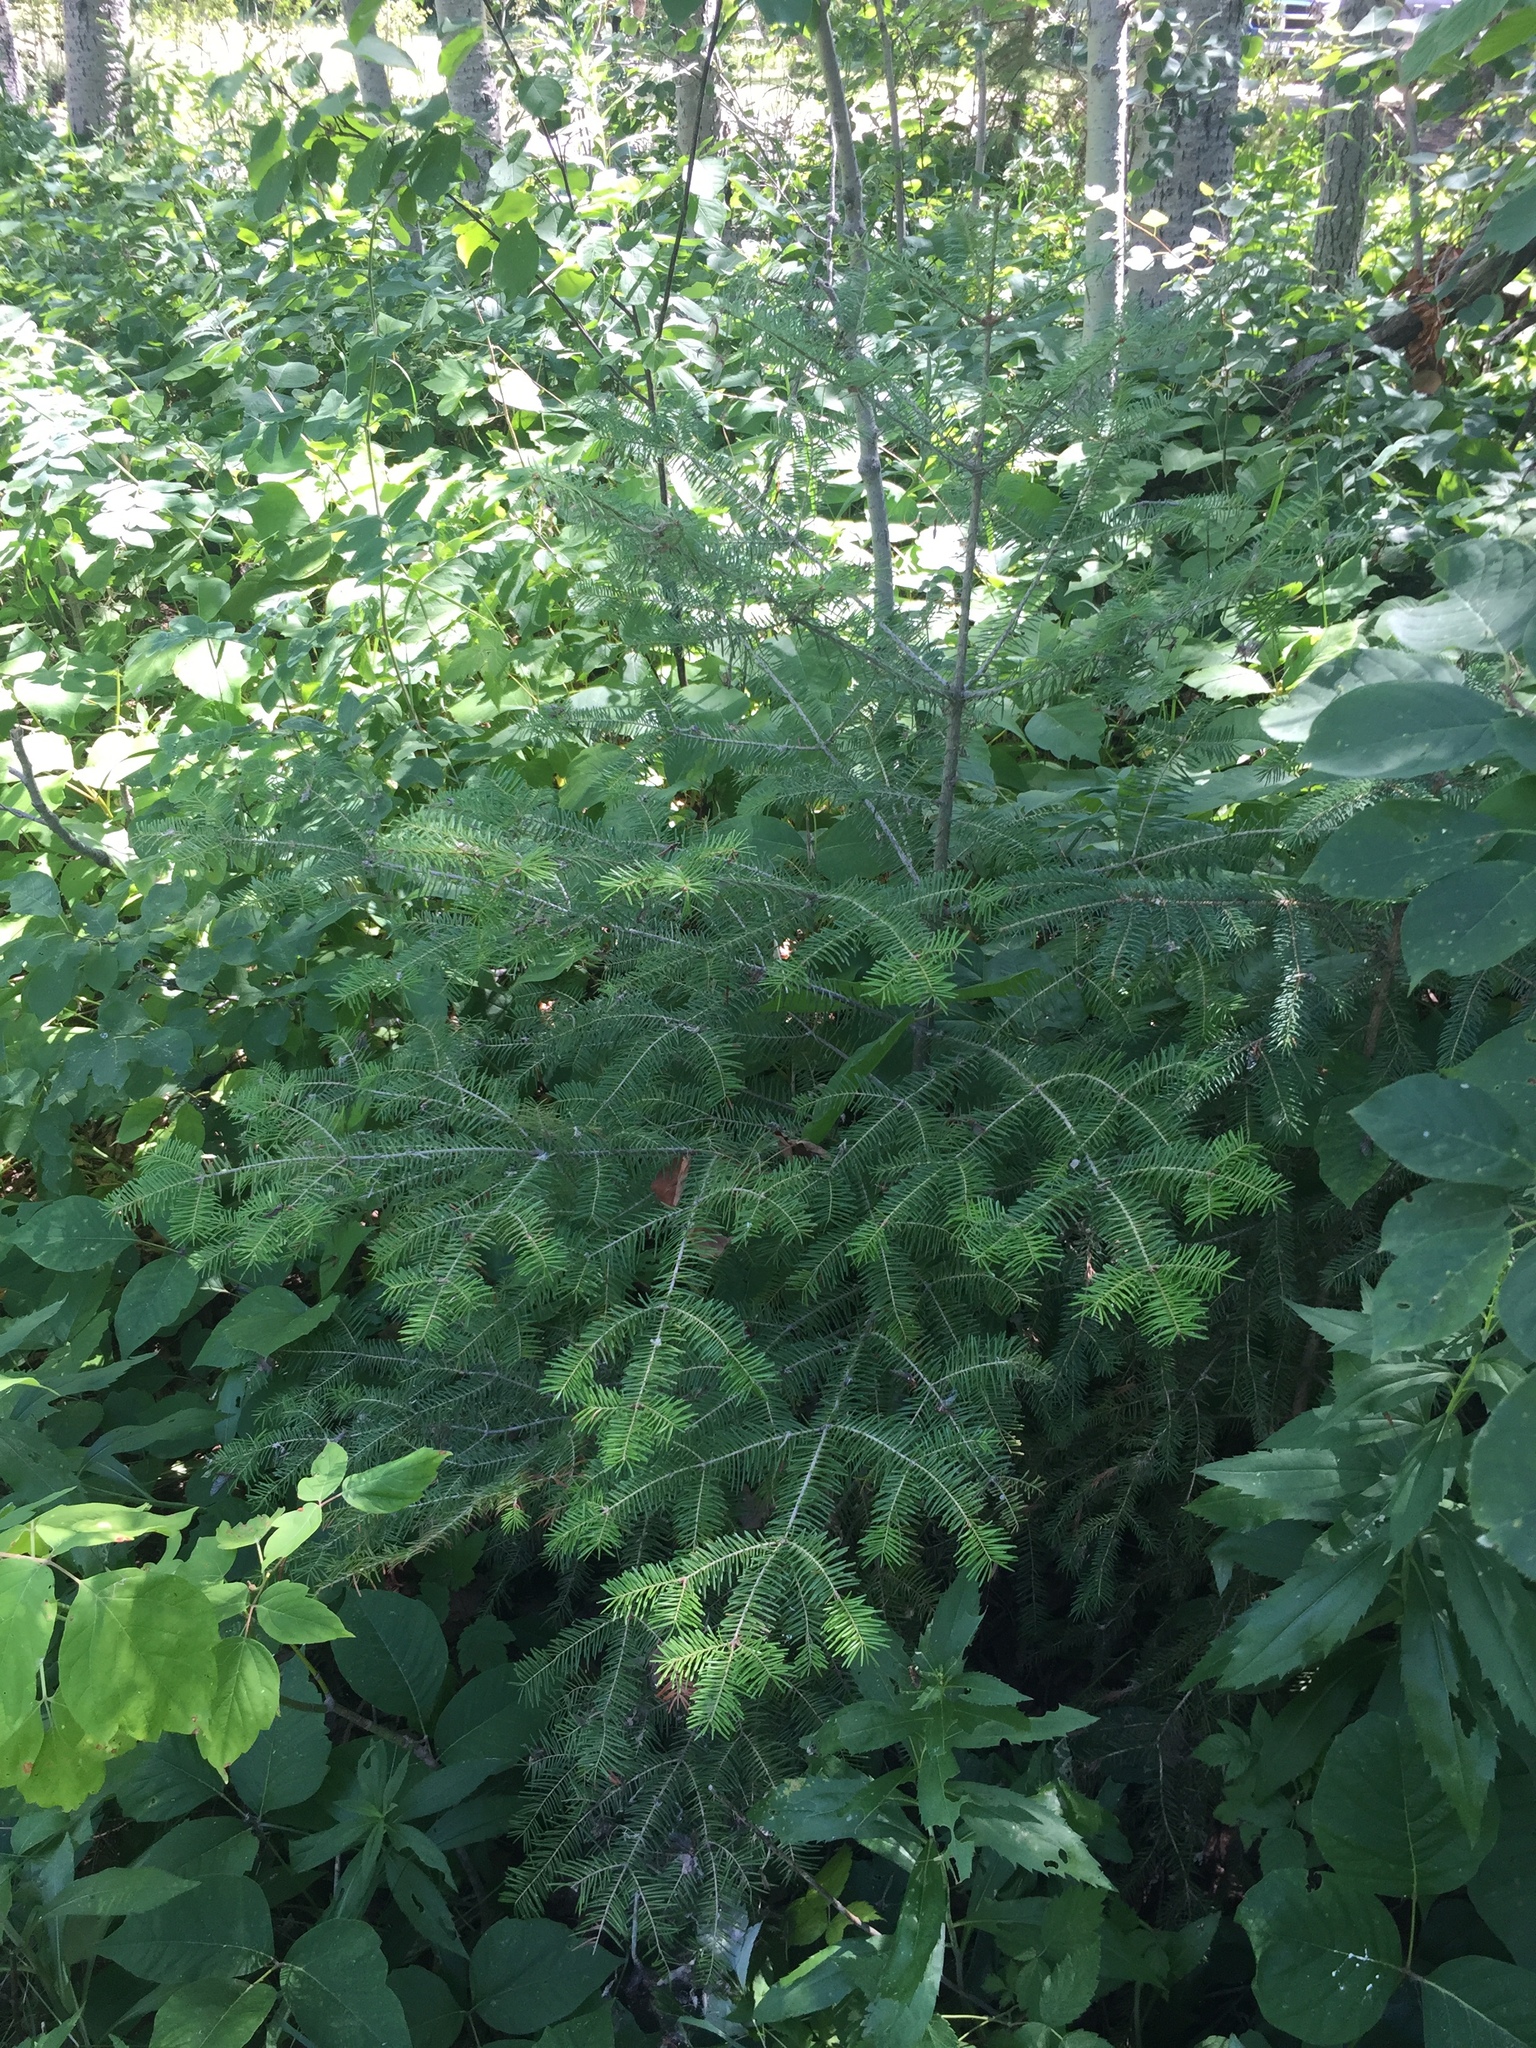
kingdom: Plantae
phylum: Tracheophyta
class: Pinopsida
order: Pinales
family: Pinaceae
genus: Abies
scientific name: Abies balsamea
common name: Balsam fir
